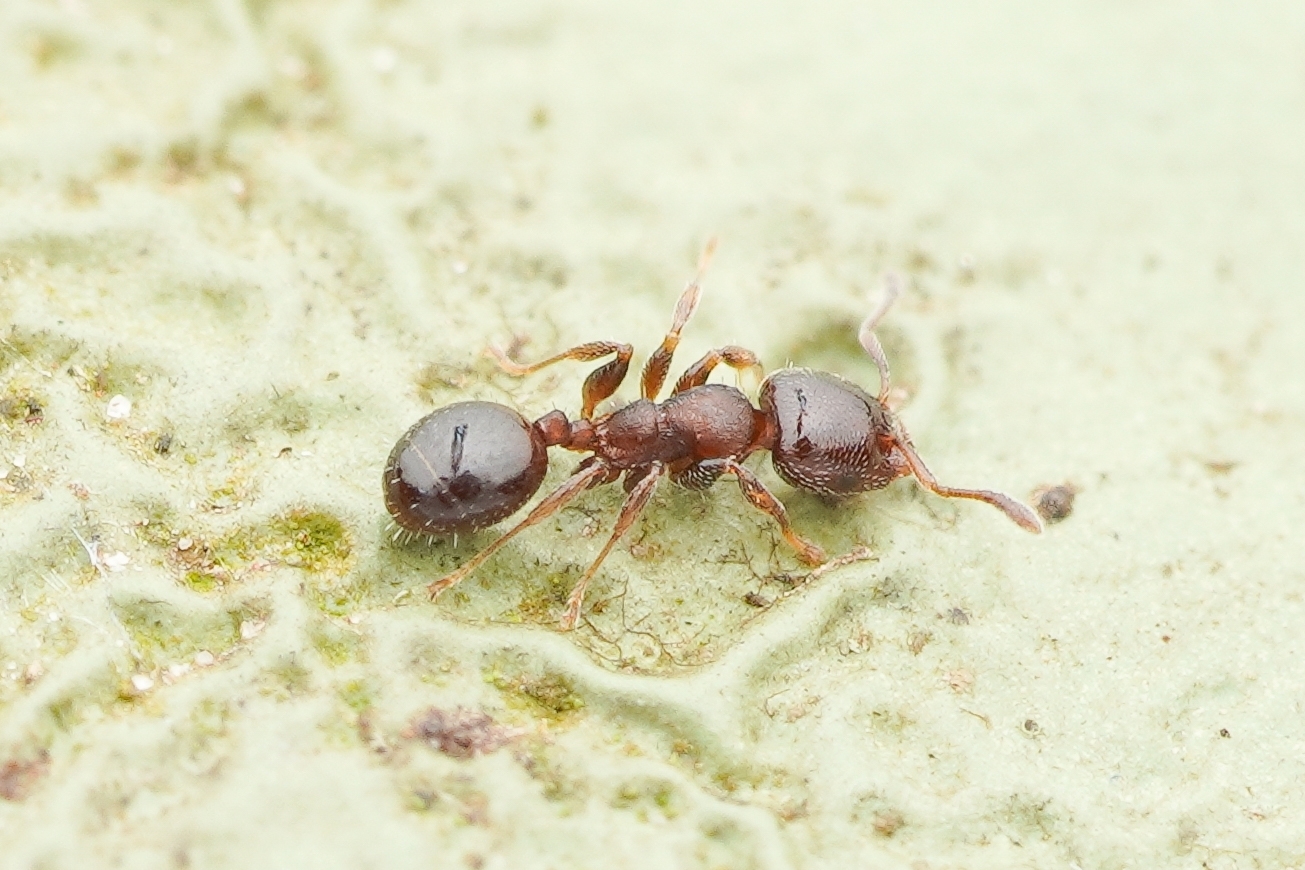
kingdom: Animalia
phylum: Arthropoda
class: Insecta
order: Hymenoptera
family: Formicidae
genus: Gauromyrmex
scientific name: Gauromyrmex
